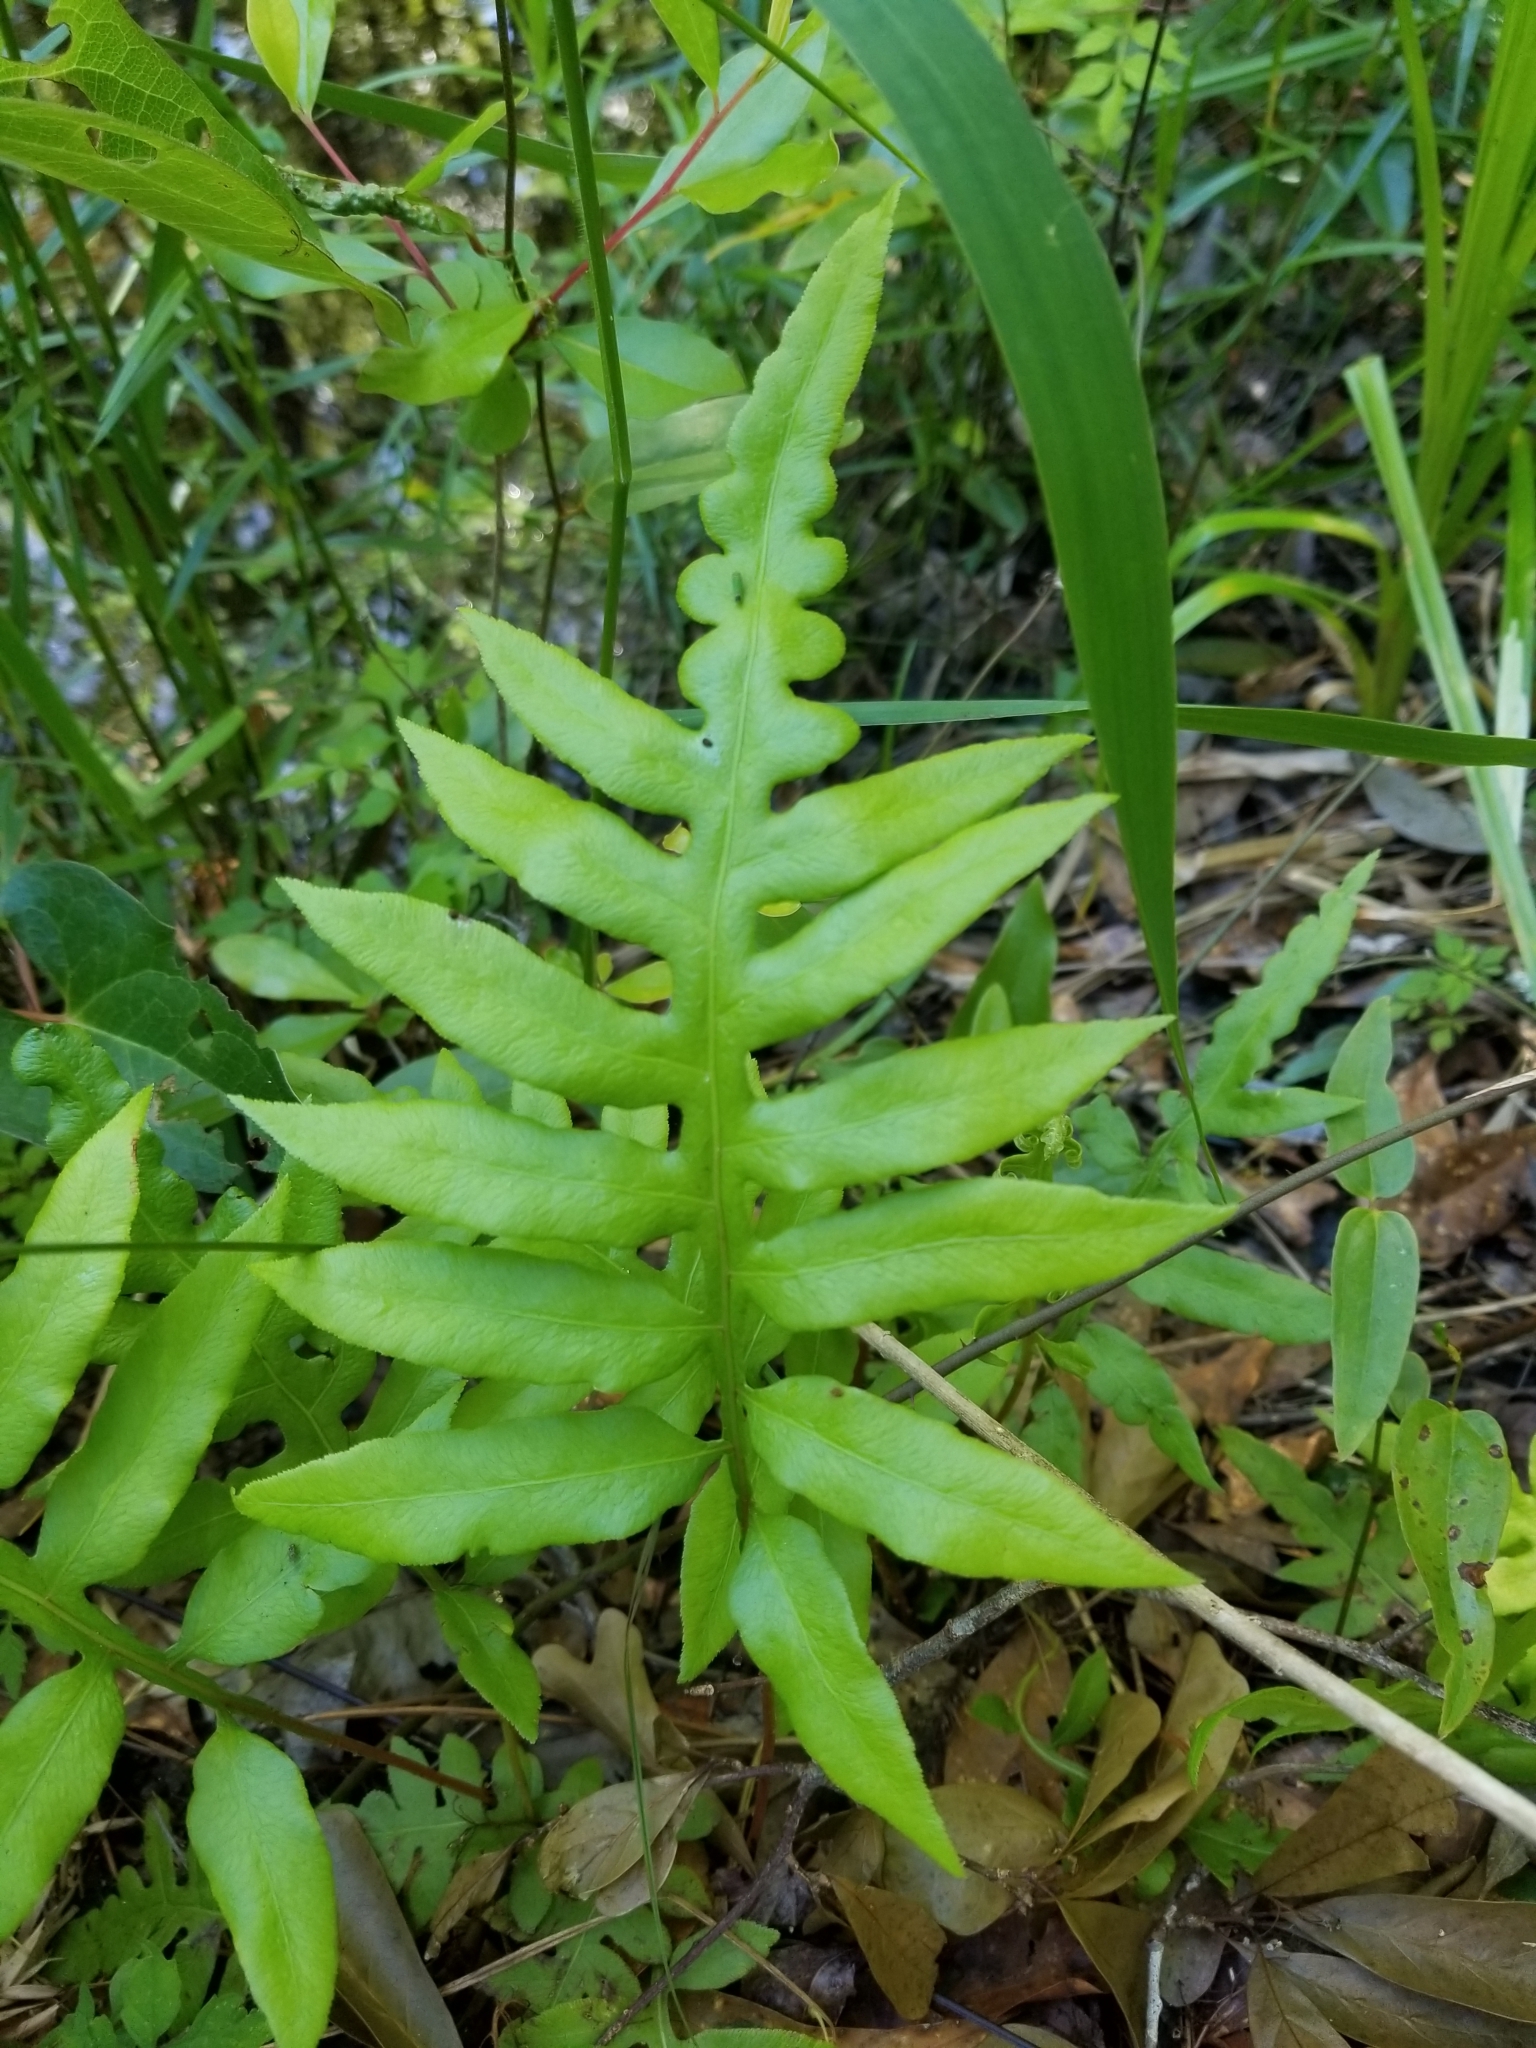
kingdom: Plantae
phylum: Tracheophyta
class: Polypodiopsida
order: Polypodiales
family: Blechnaceae
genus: Lorinseria
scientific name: Lorinseria areolata
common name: Dwarf chain fern
